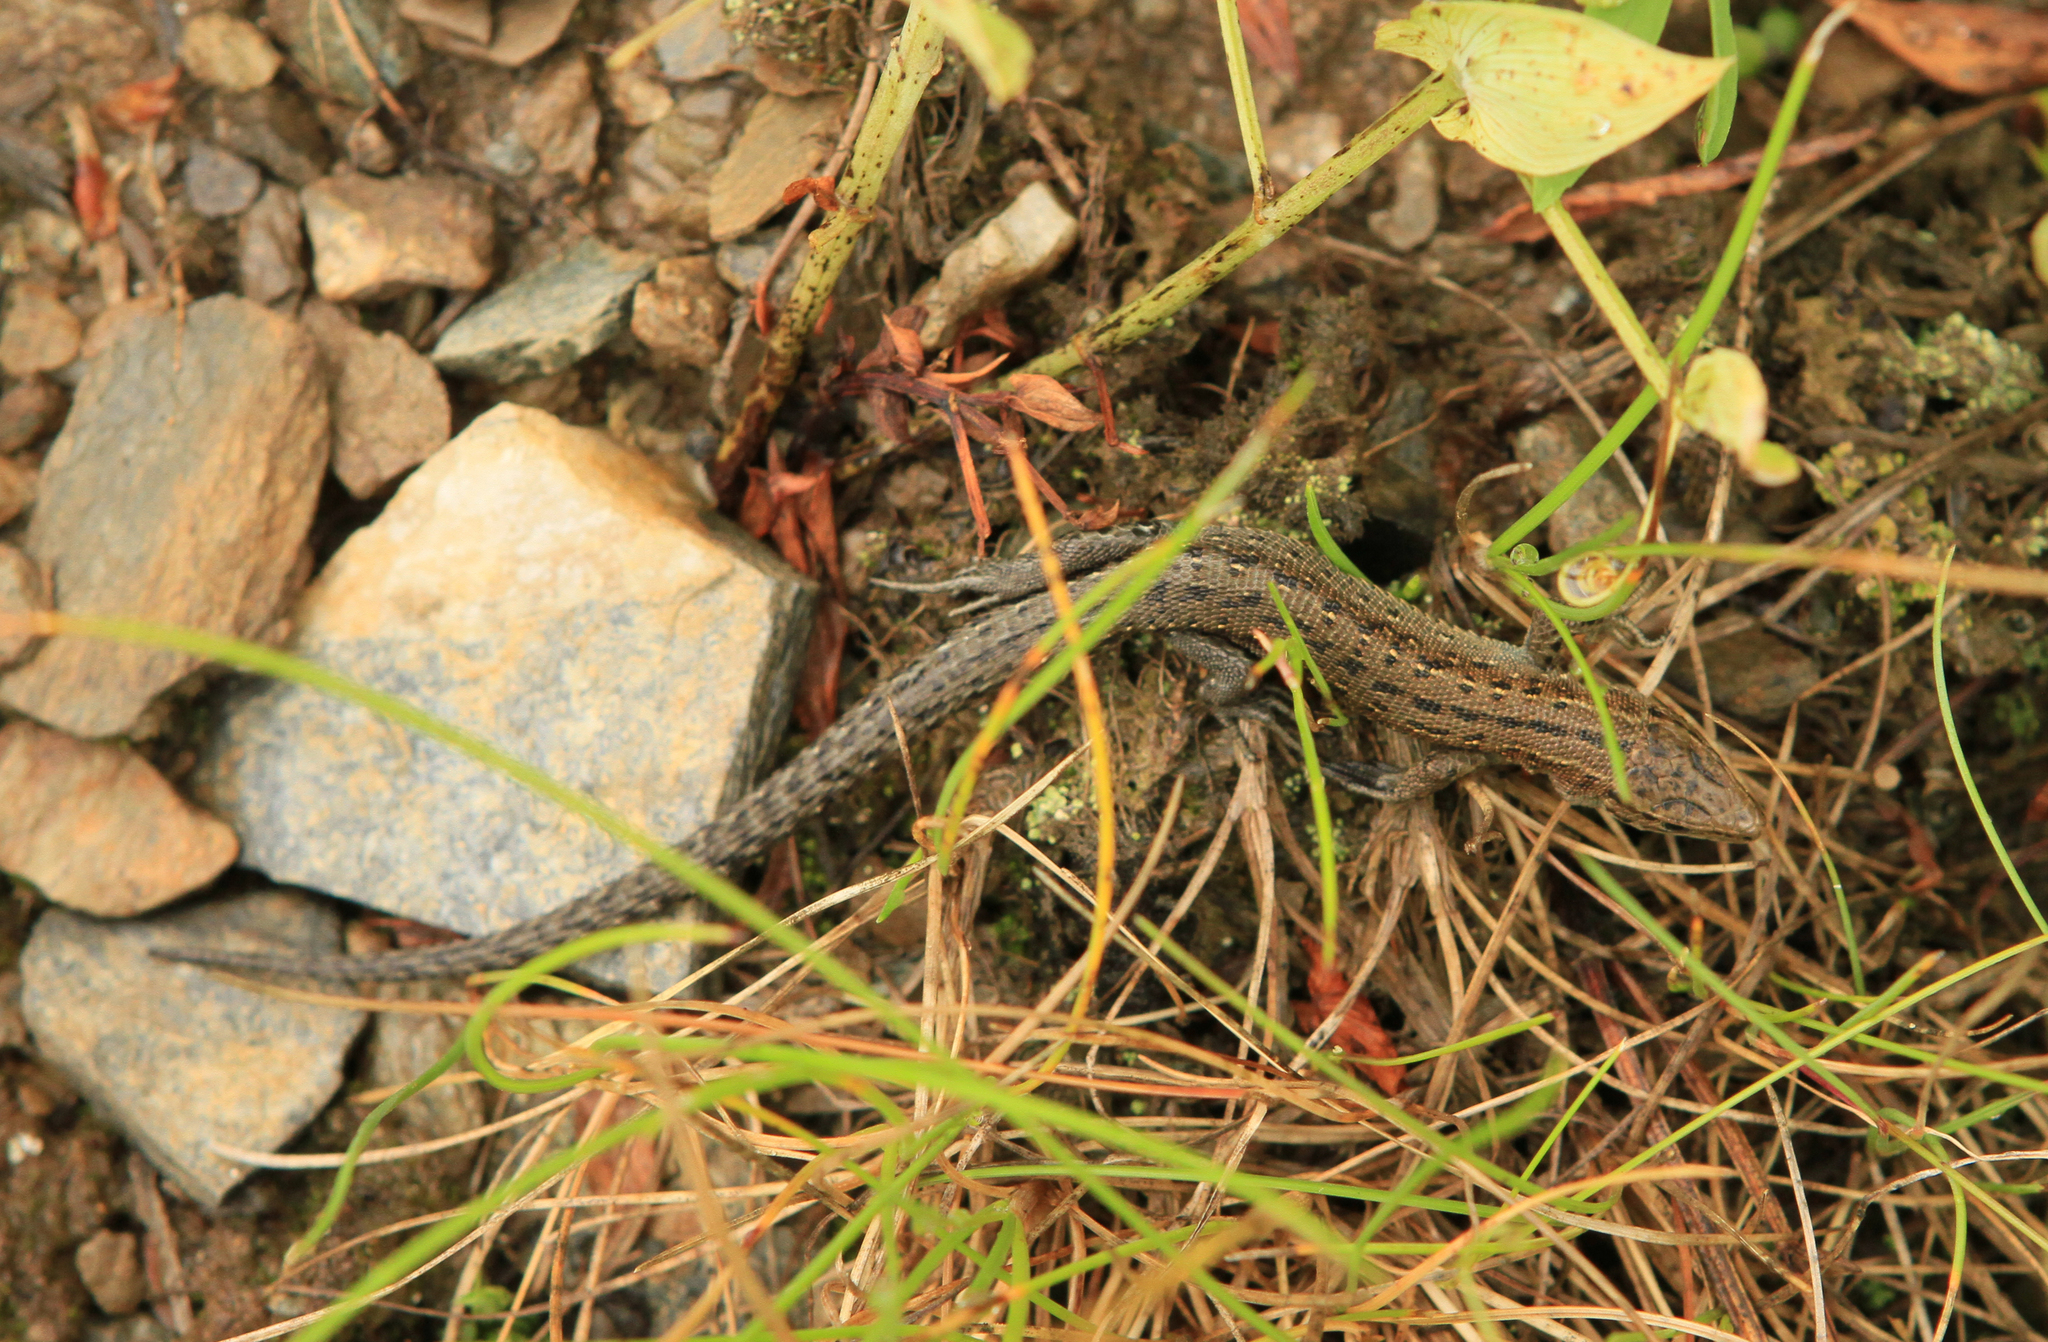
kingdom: Animalia
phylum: Chordata
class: Squamata
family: Lacertidae
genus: Zootoca
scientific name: Zootoca vivipara
